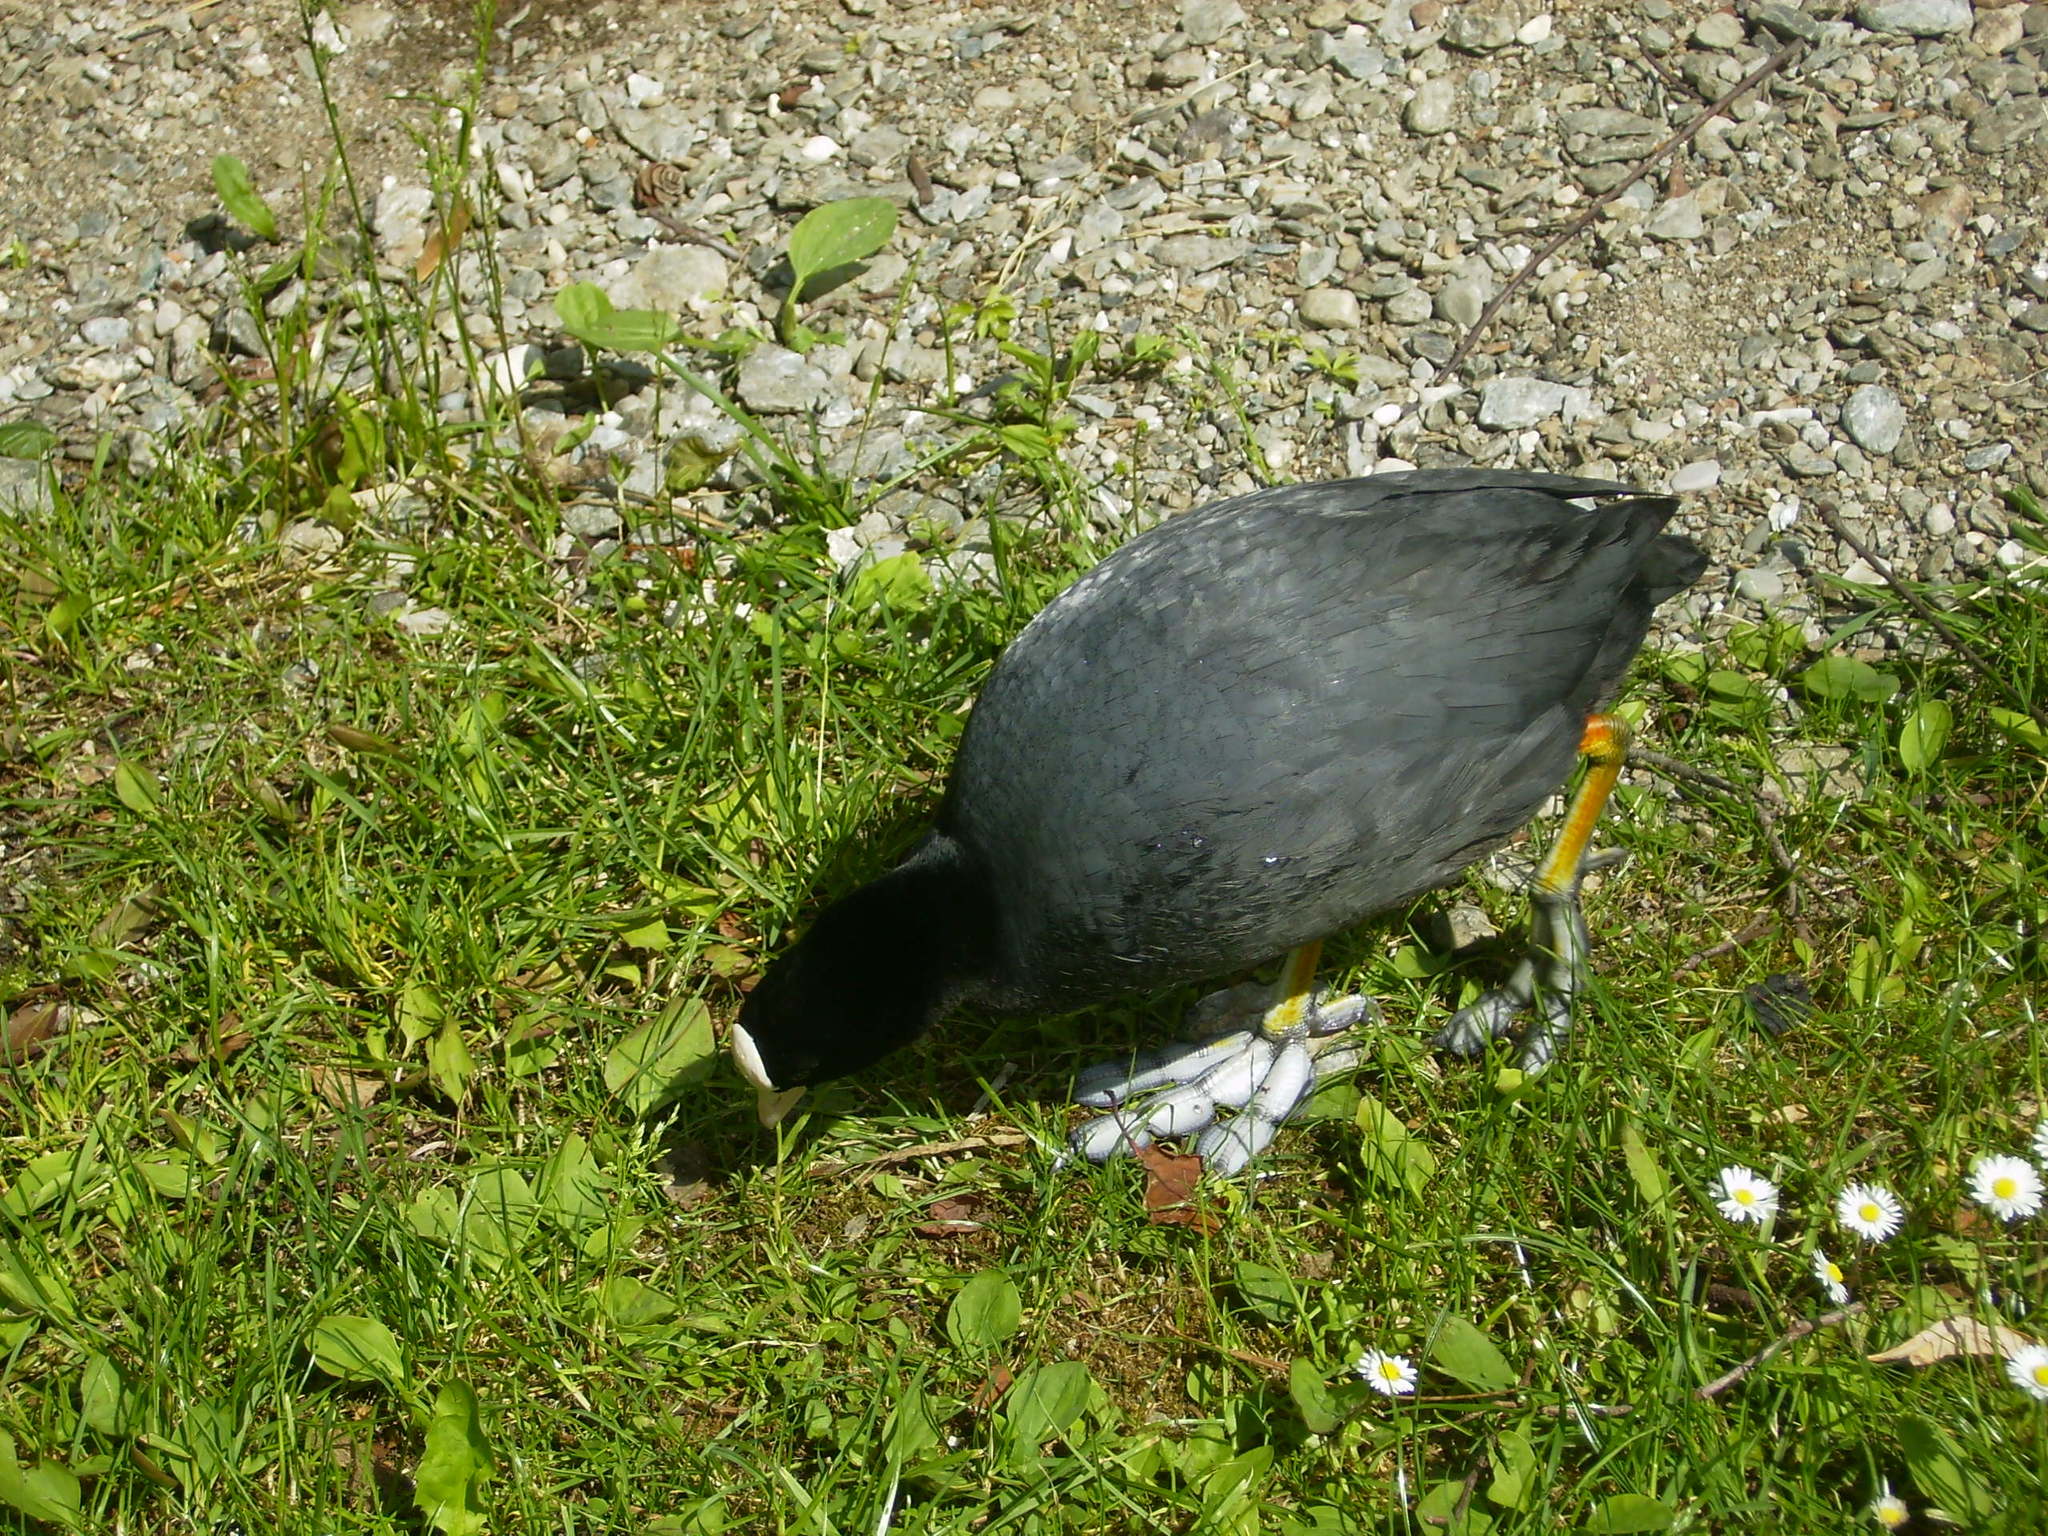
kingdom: Animalia
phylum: Chordata
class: Aves
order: Gruiformes
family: Rallidae
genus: Fulica
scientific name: Fulica atra
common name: Eurasian coot
